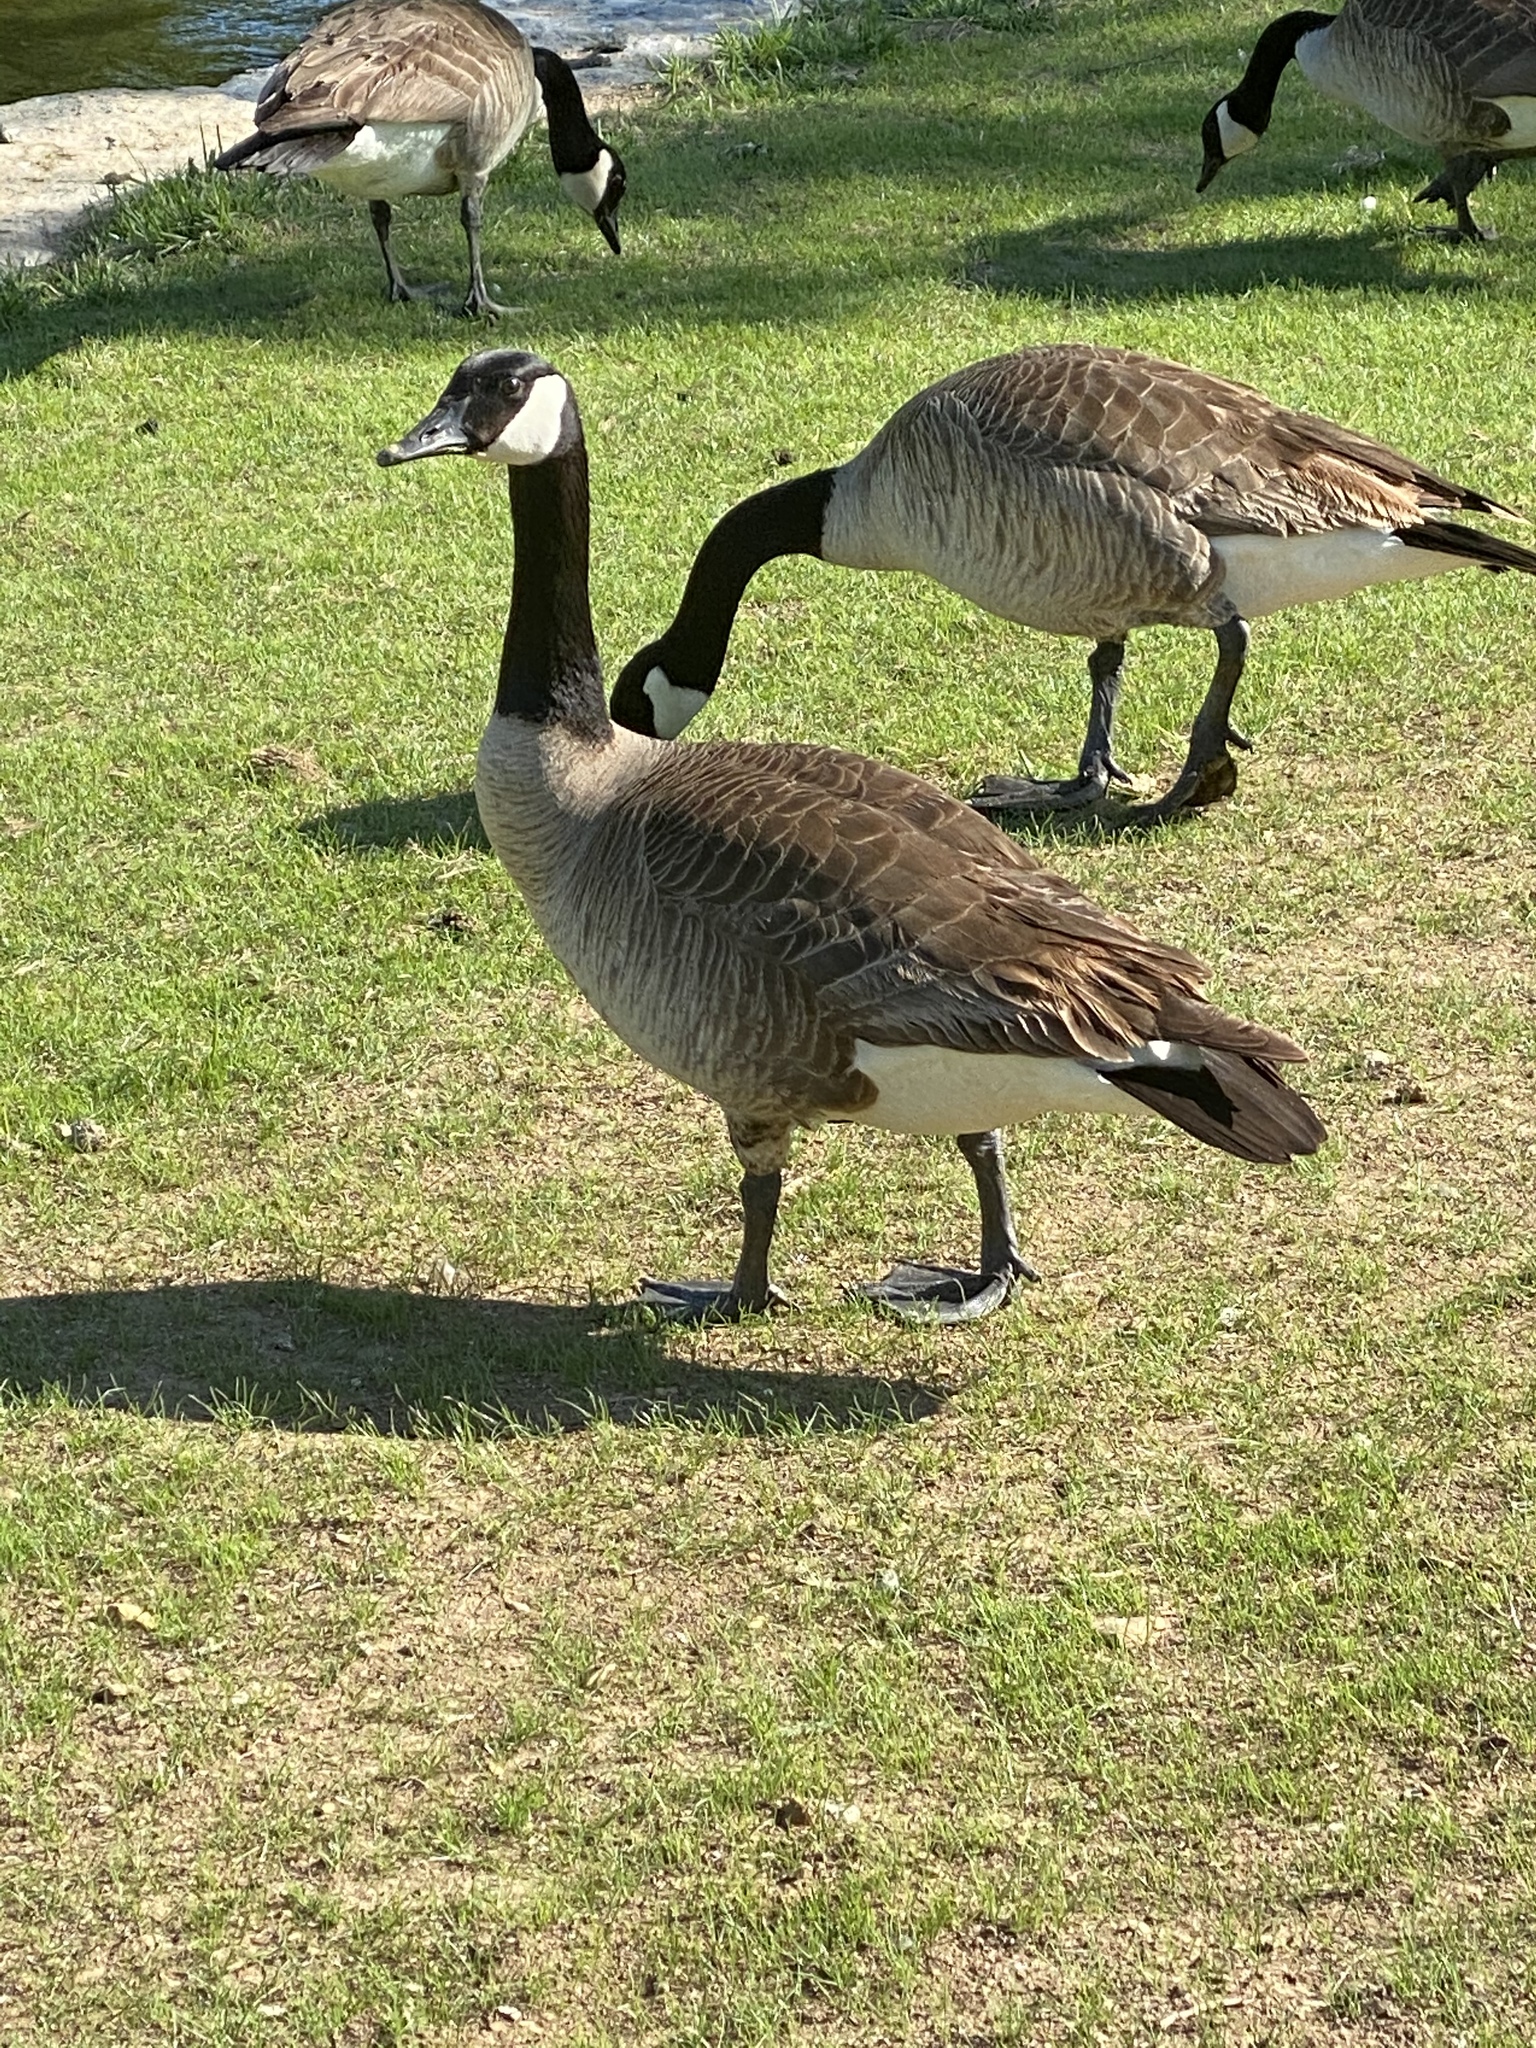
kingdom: Animalia
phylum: Chordata
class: Aves
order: Anseriformes
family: Anatidae
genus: Branta
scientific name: Branta canadensis
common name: Canada goose
